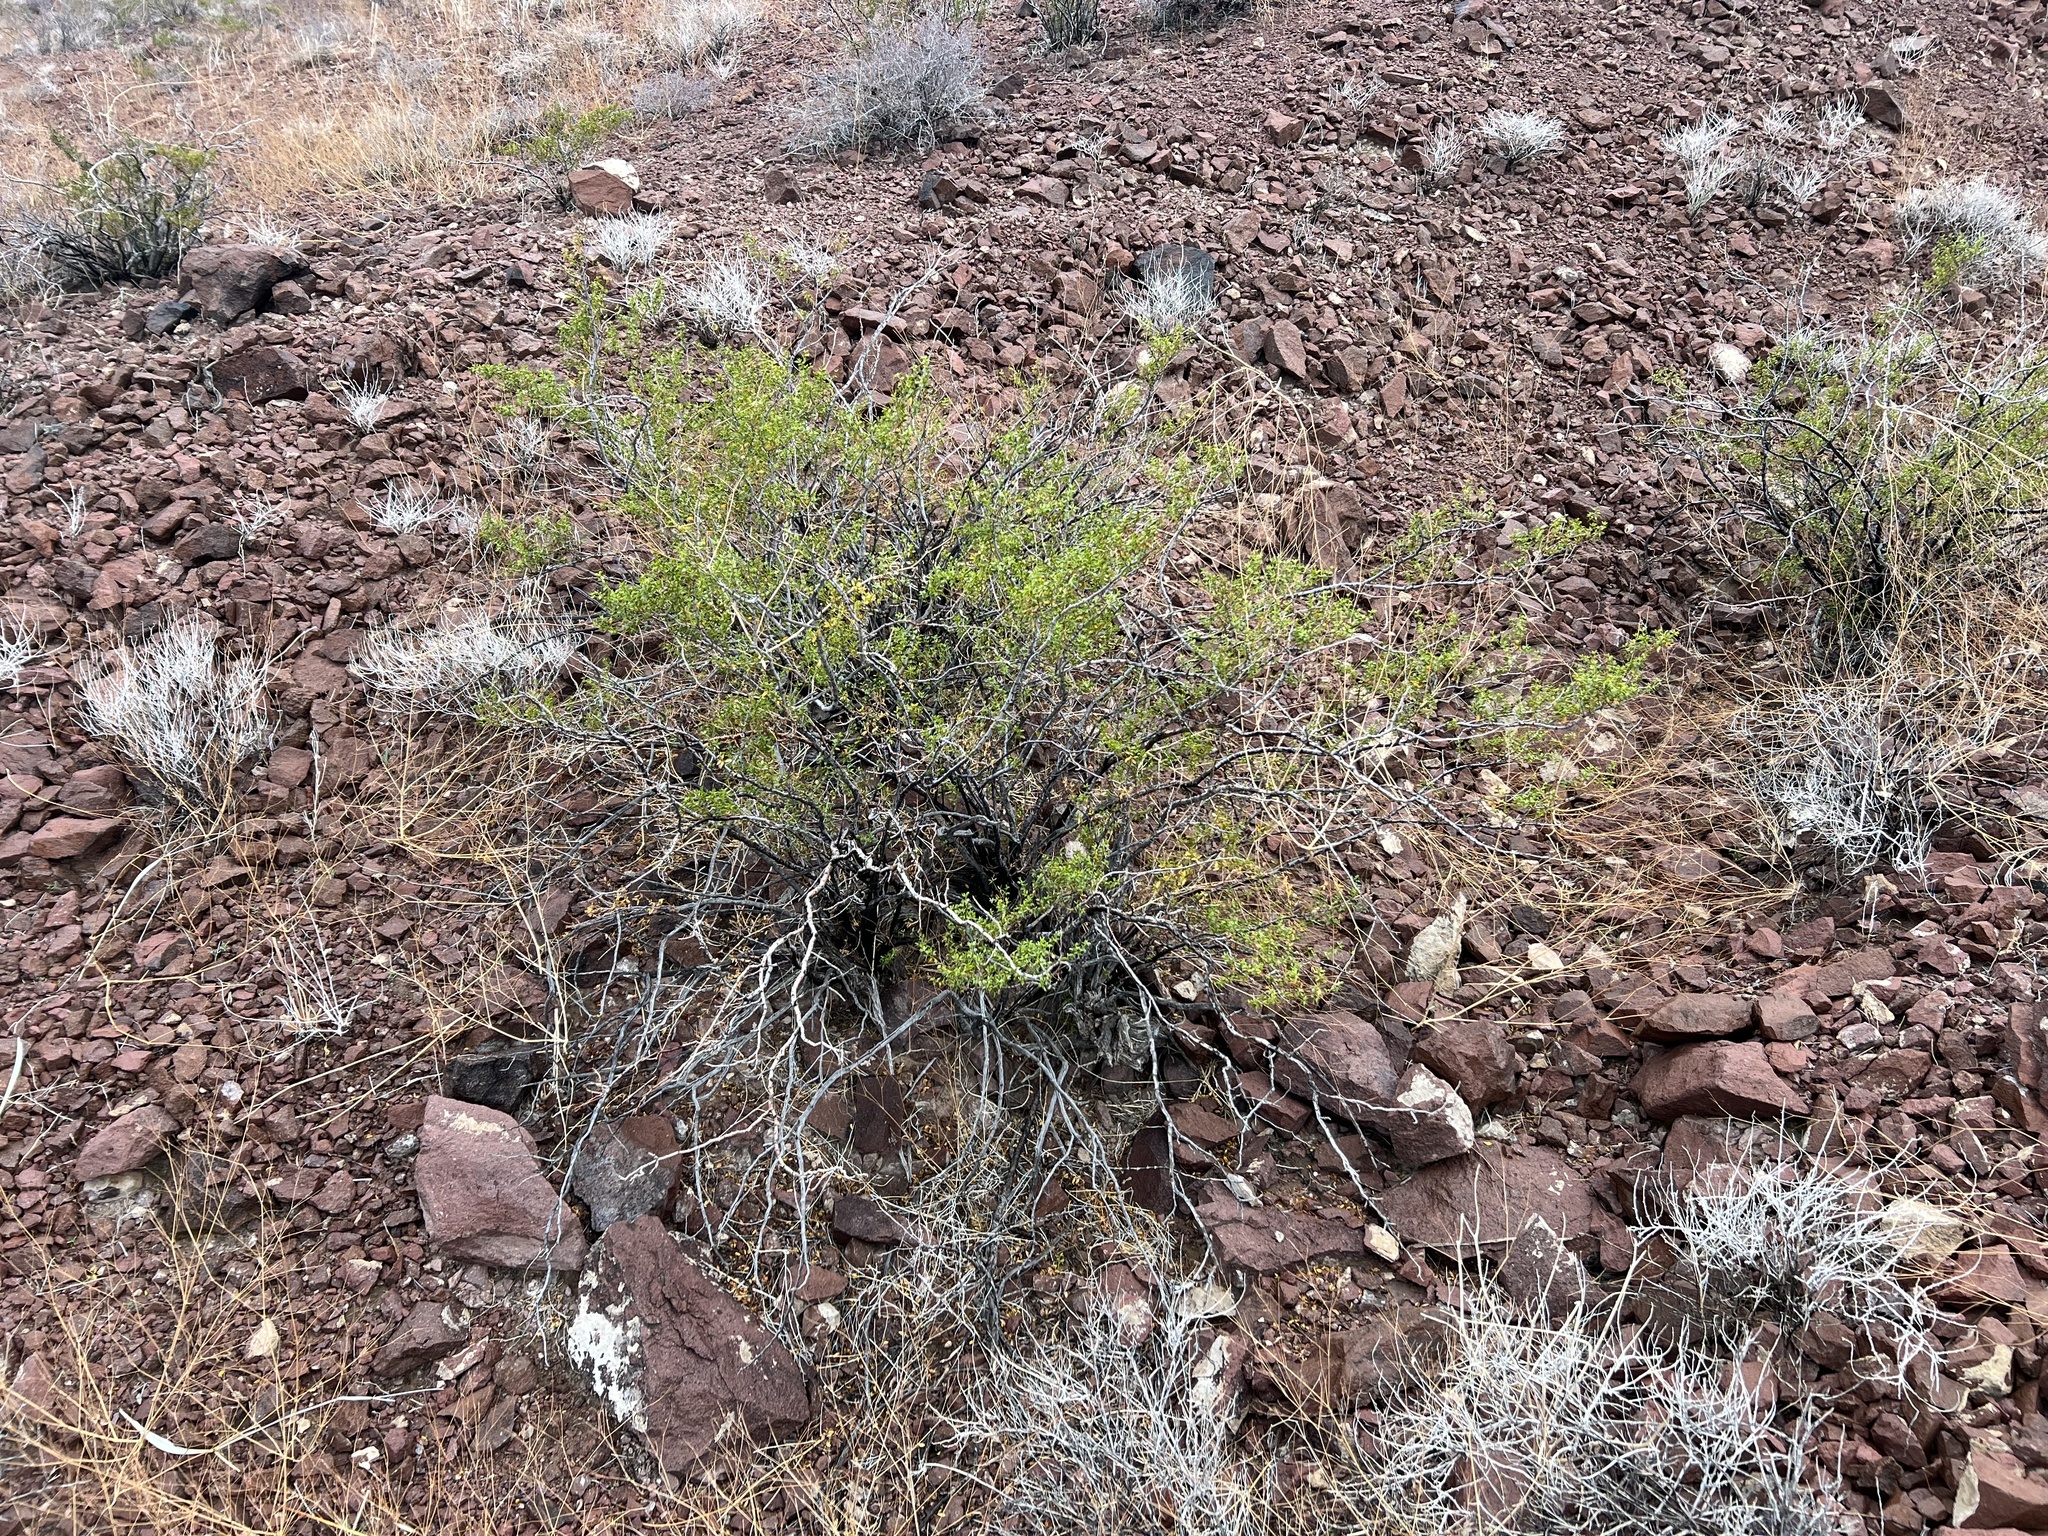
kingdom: Plantae
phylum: Tracheophyta
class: Magnoliopsida
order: Zygophyllales
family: Zygophyllaceae
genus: Larrea
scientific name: Larrea tridentata
